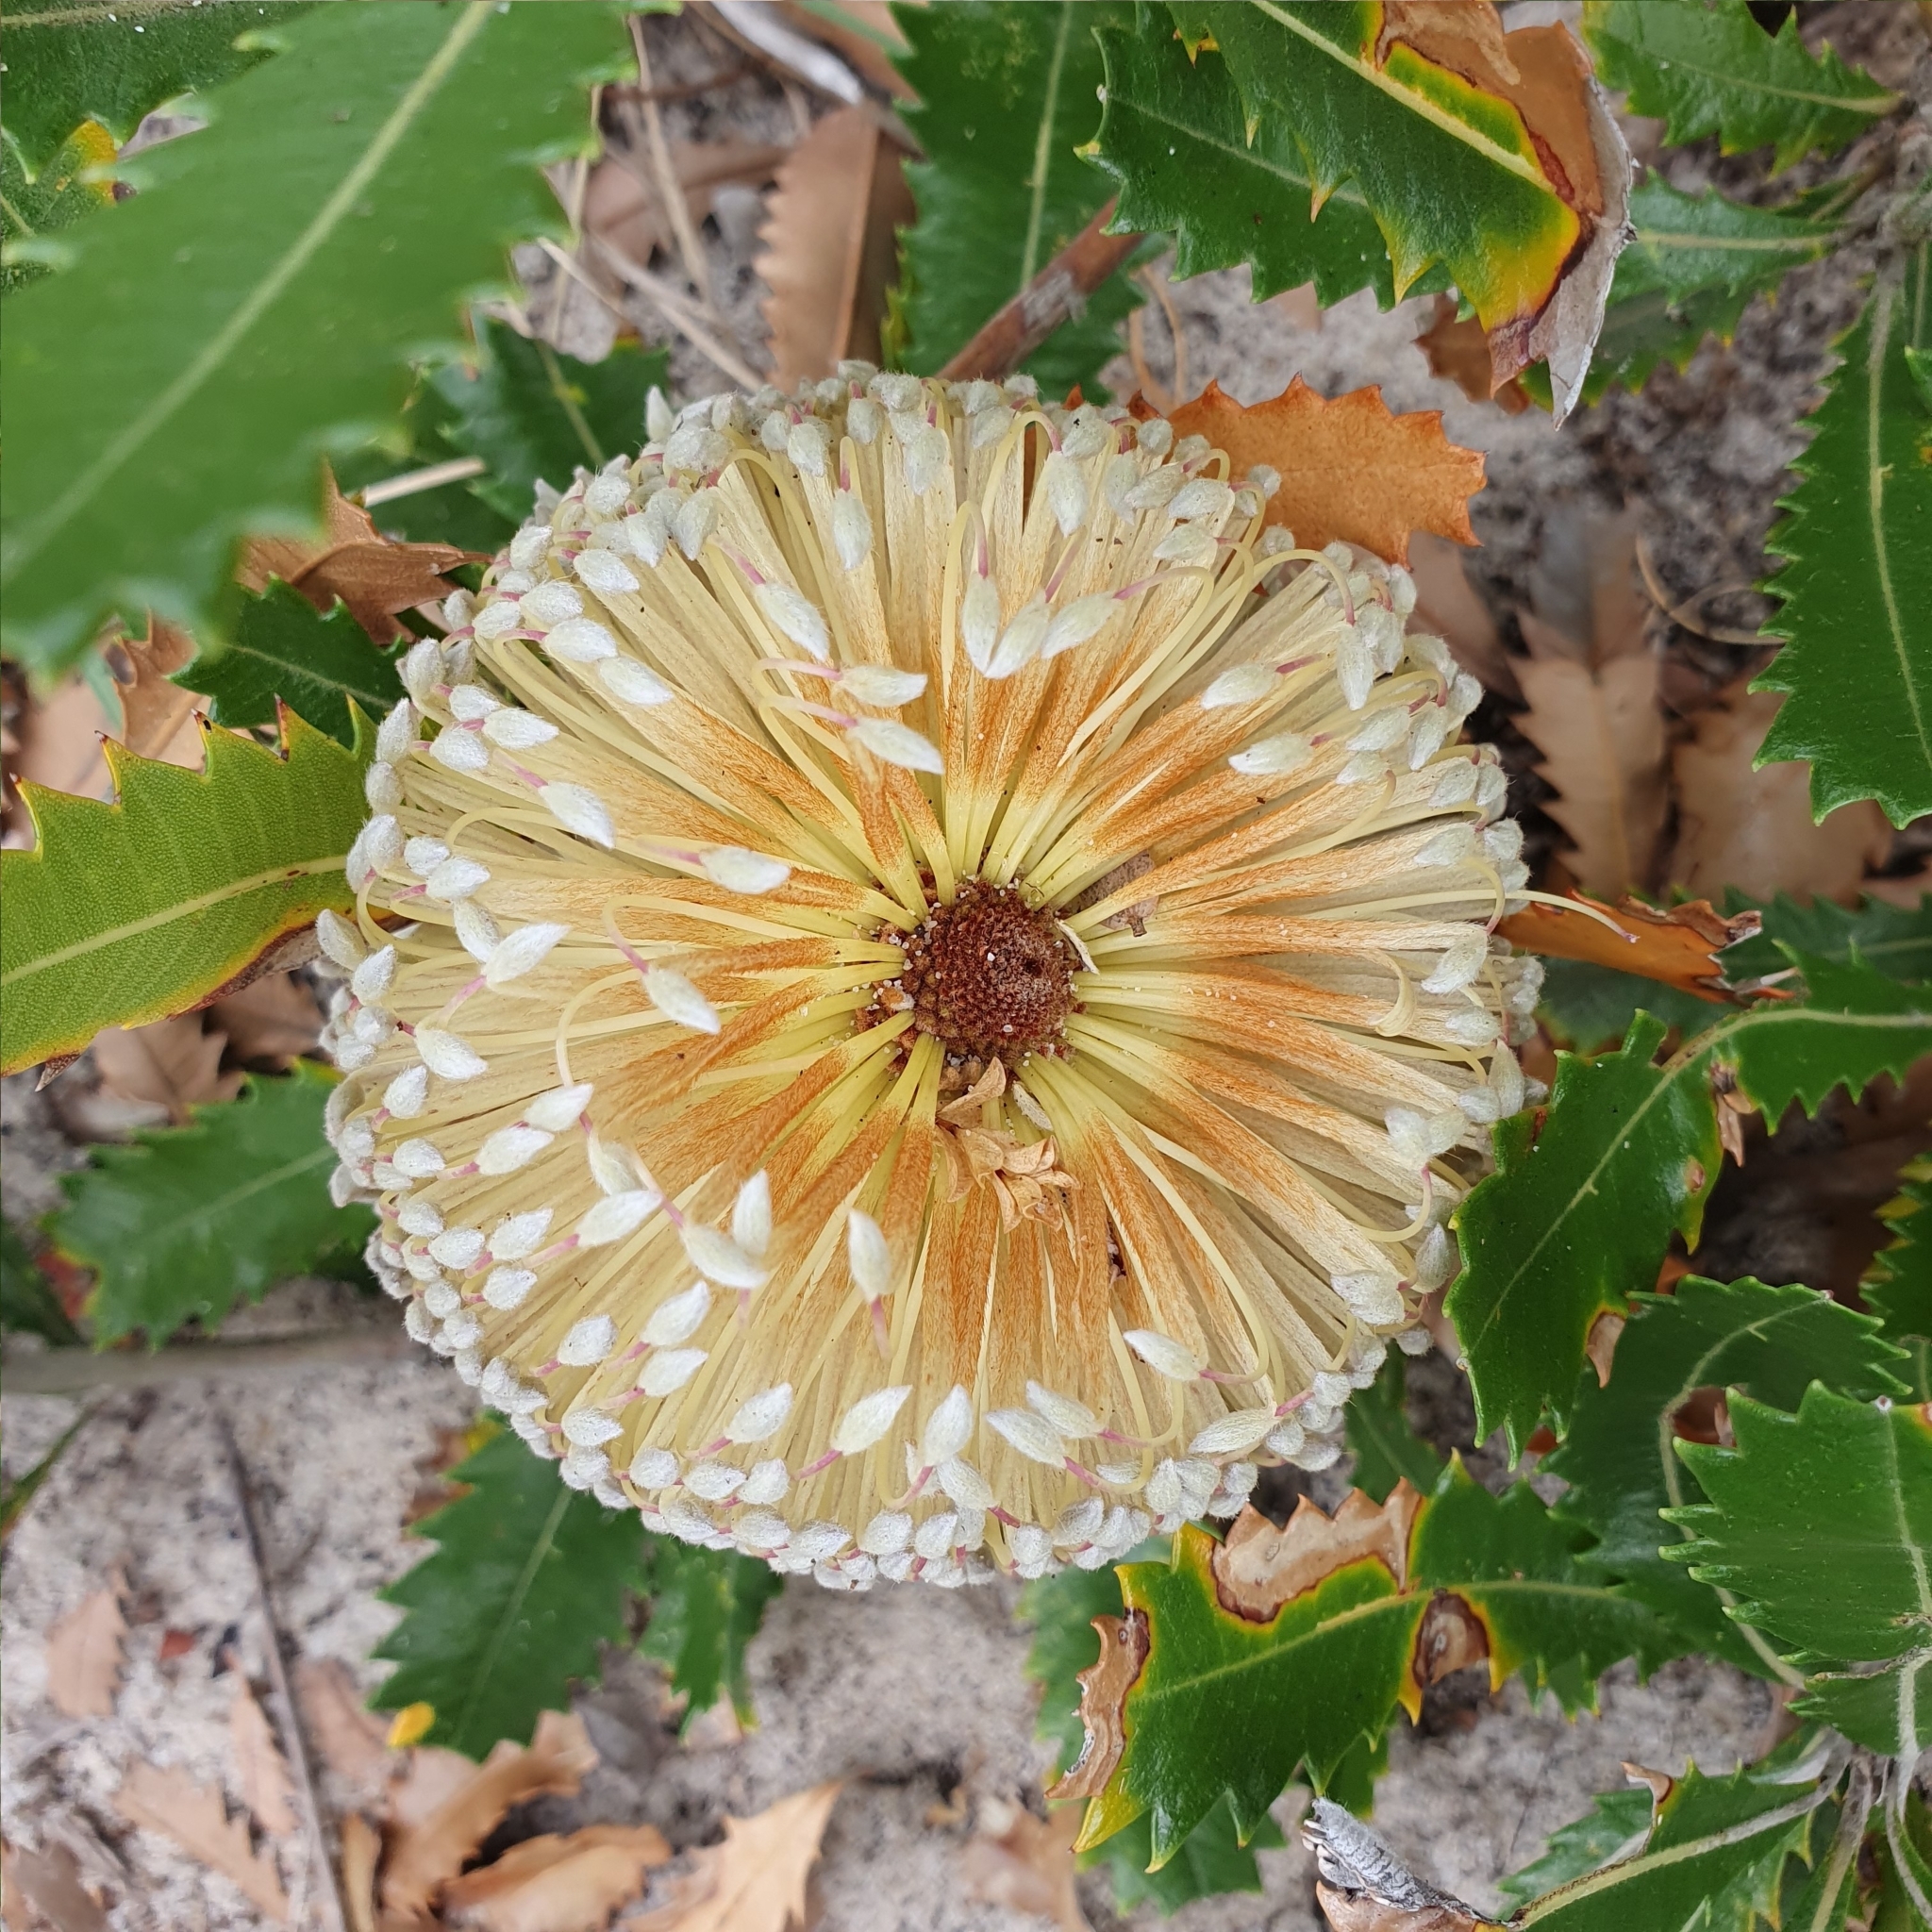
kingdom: Plantae
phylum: Tracheophyta
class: Magnoliopsida
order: Proteales
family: Proteaceae
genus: Banksia
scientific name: Banksia serrata
